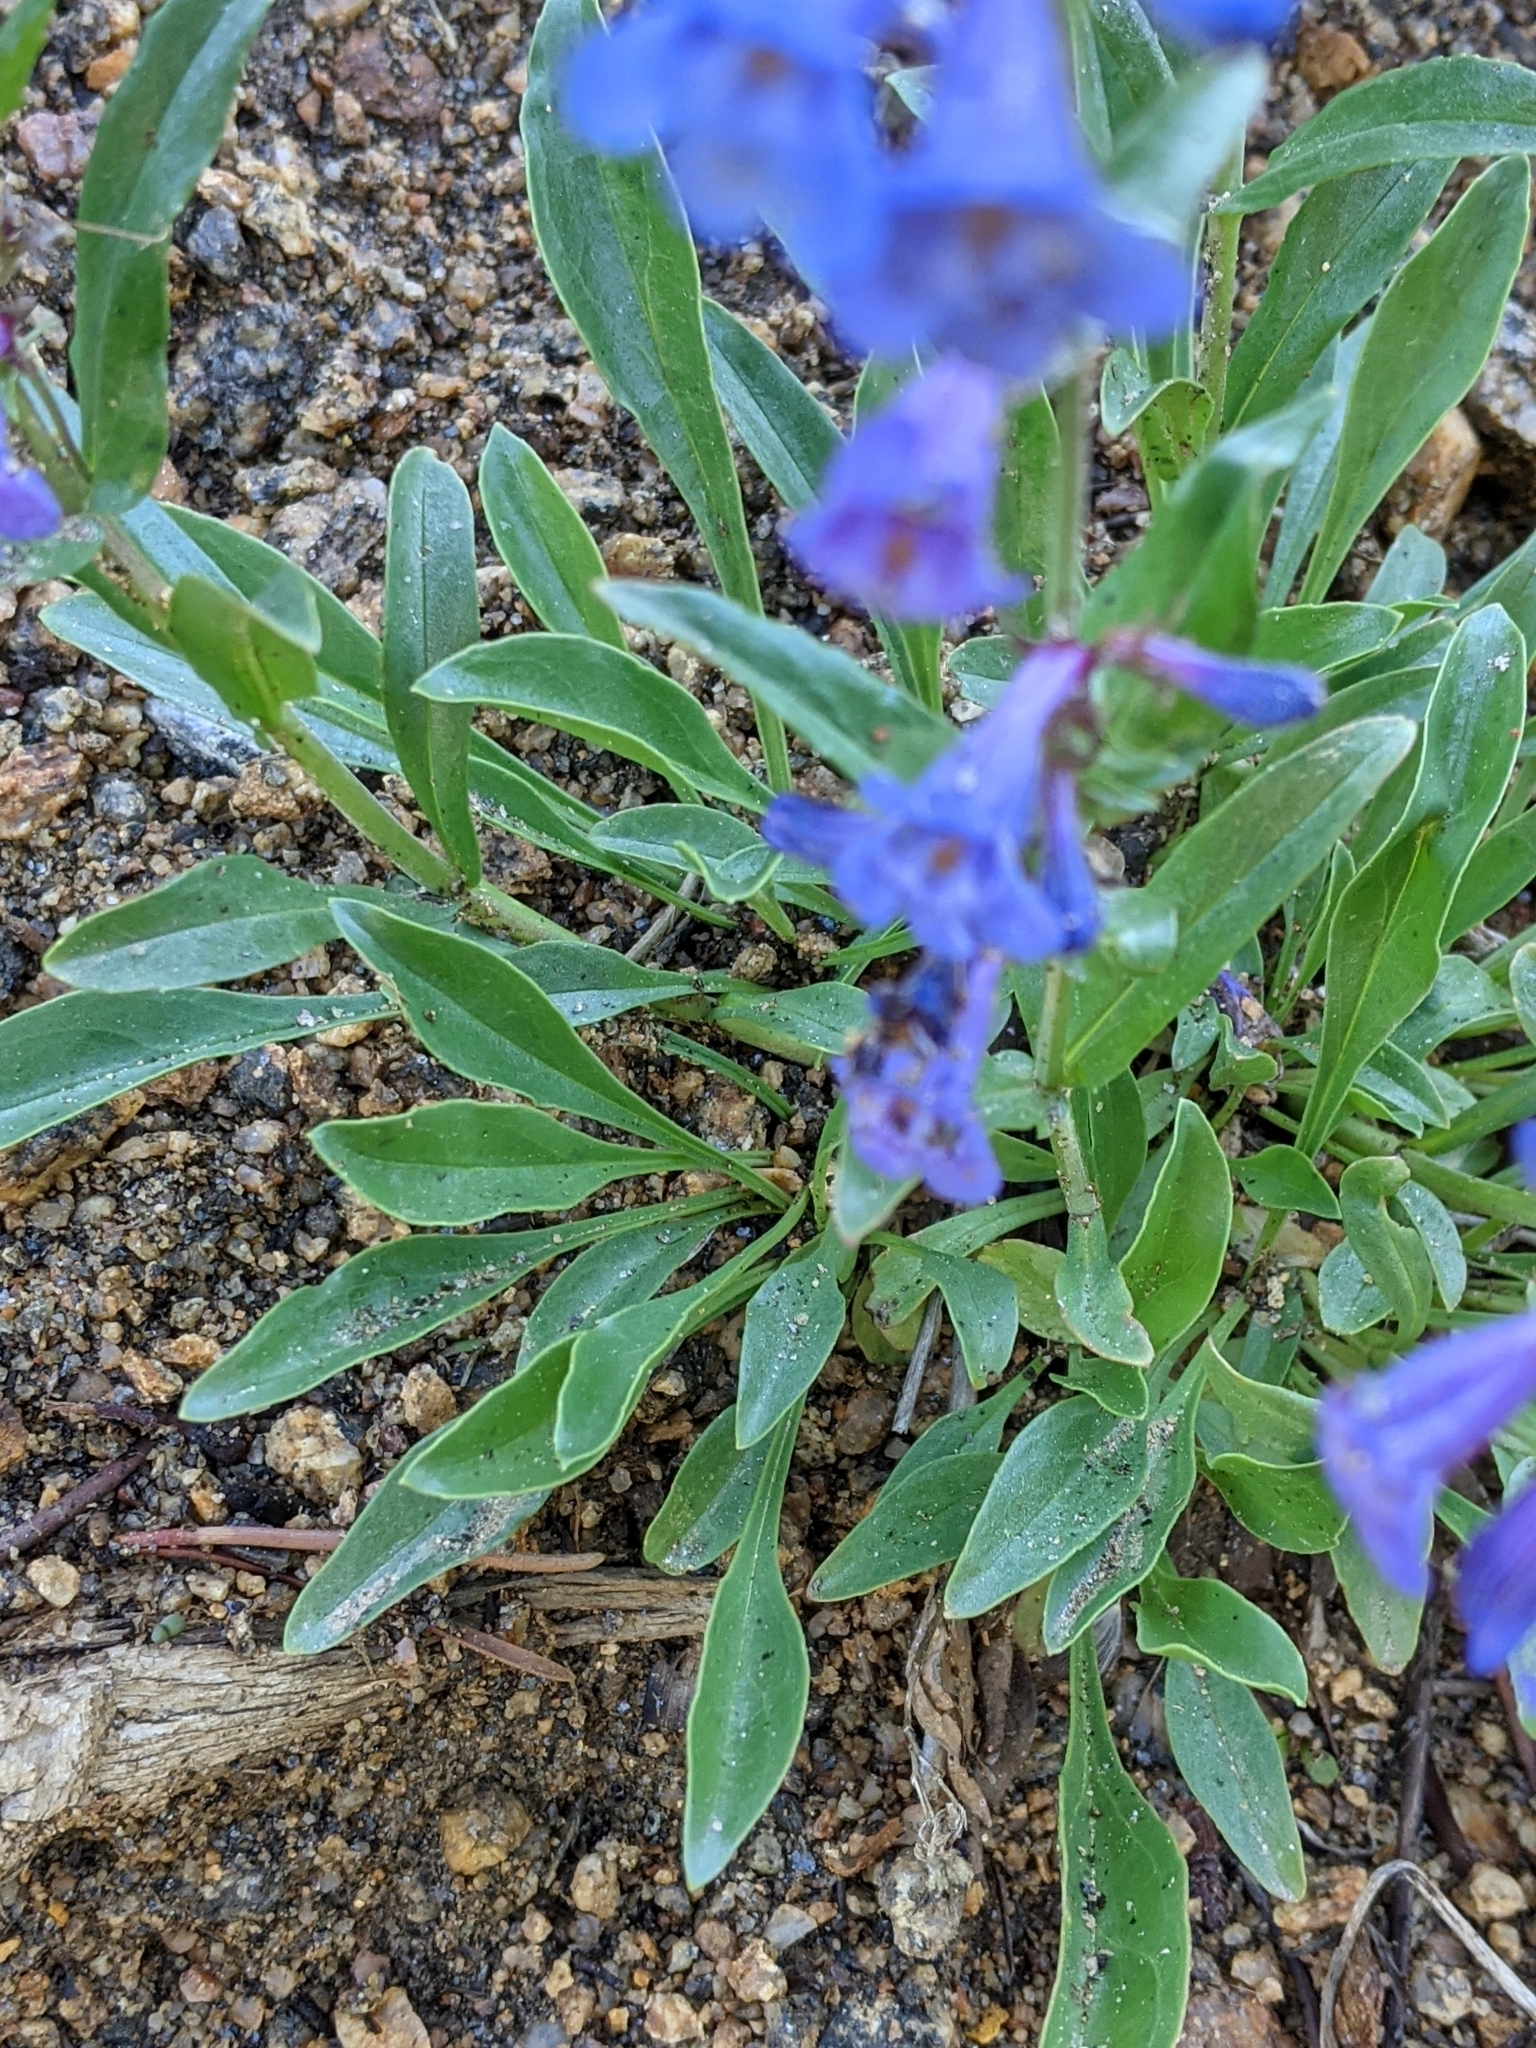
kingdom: Plantae
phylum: Tracheophyta
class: Magnoliopsida
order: Lamiales
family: Plantaginaceae
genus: Penstemon
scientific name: Penstemon virens
